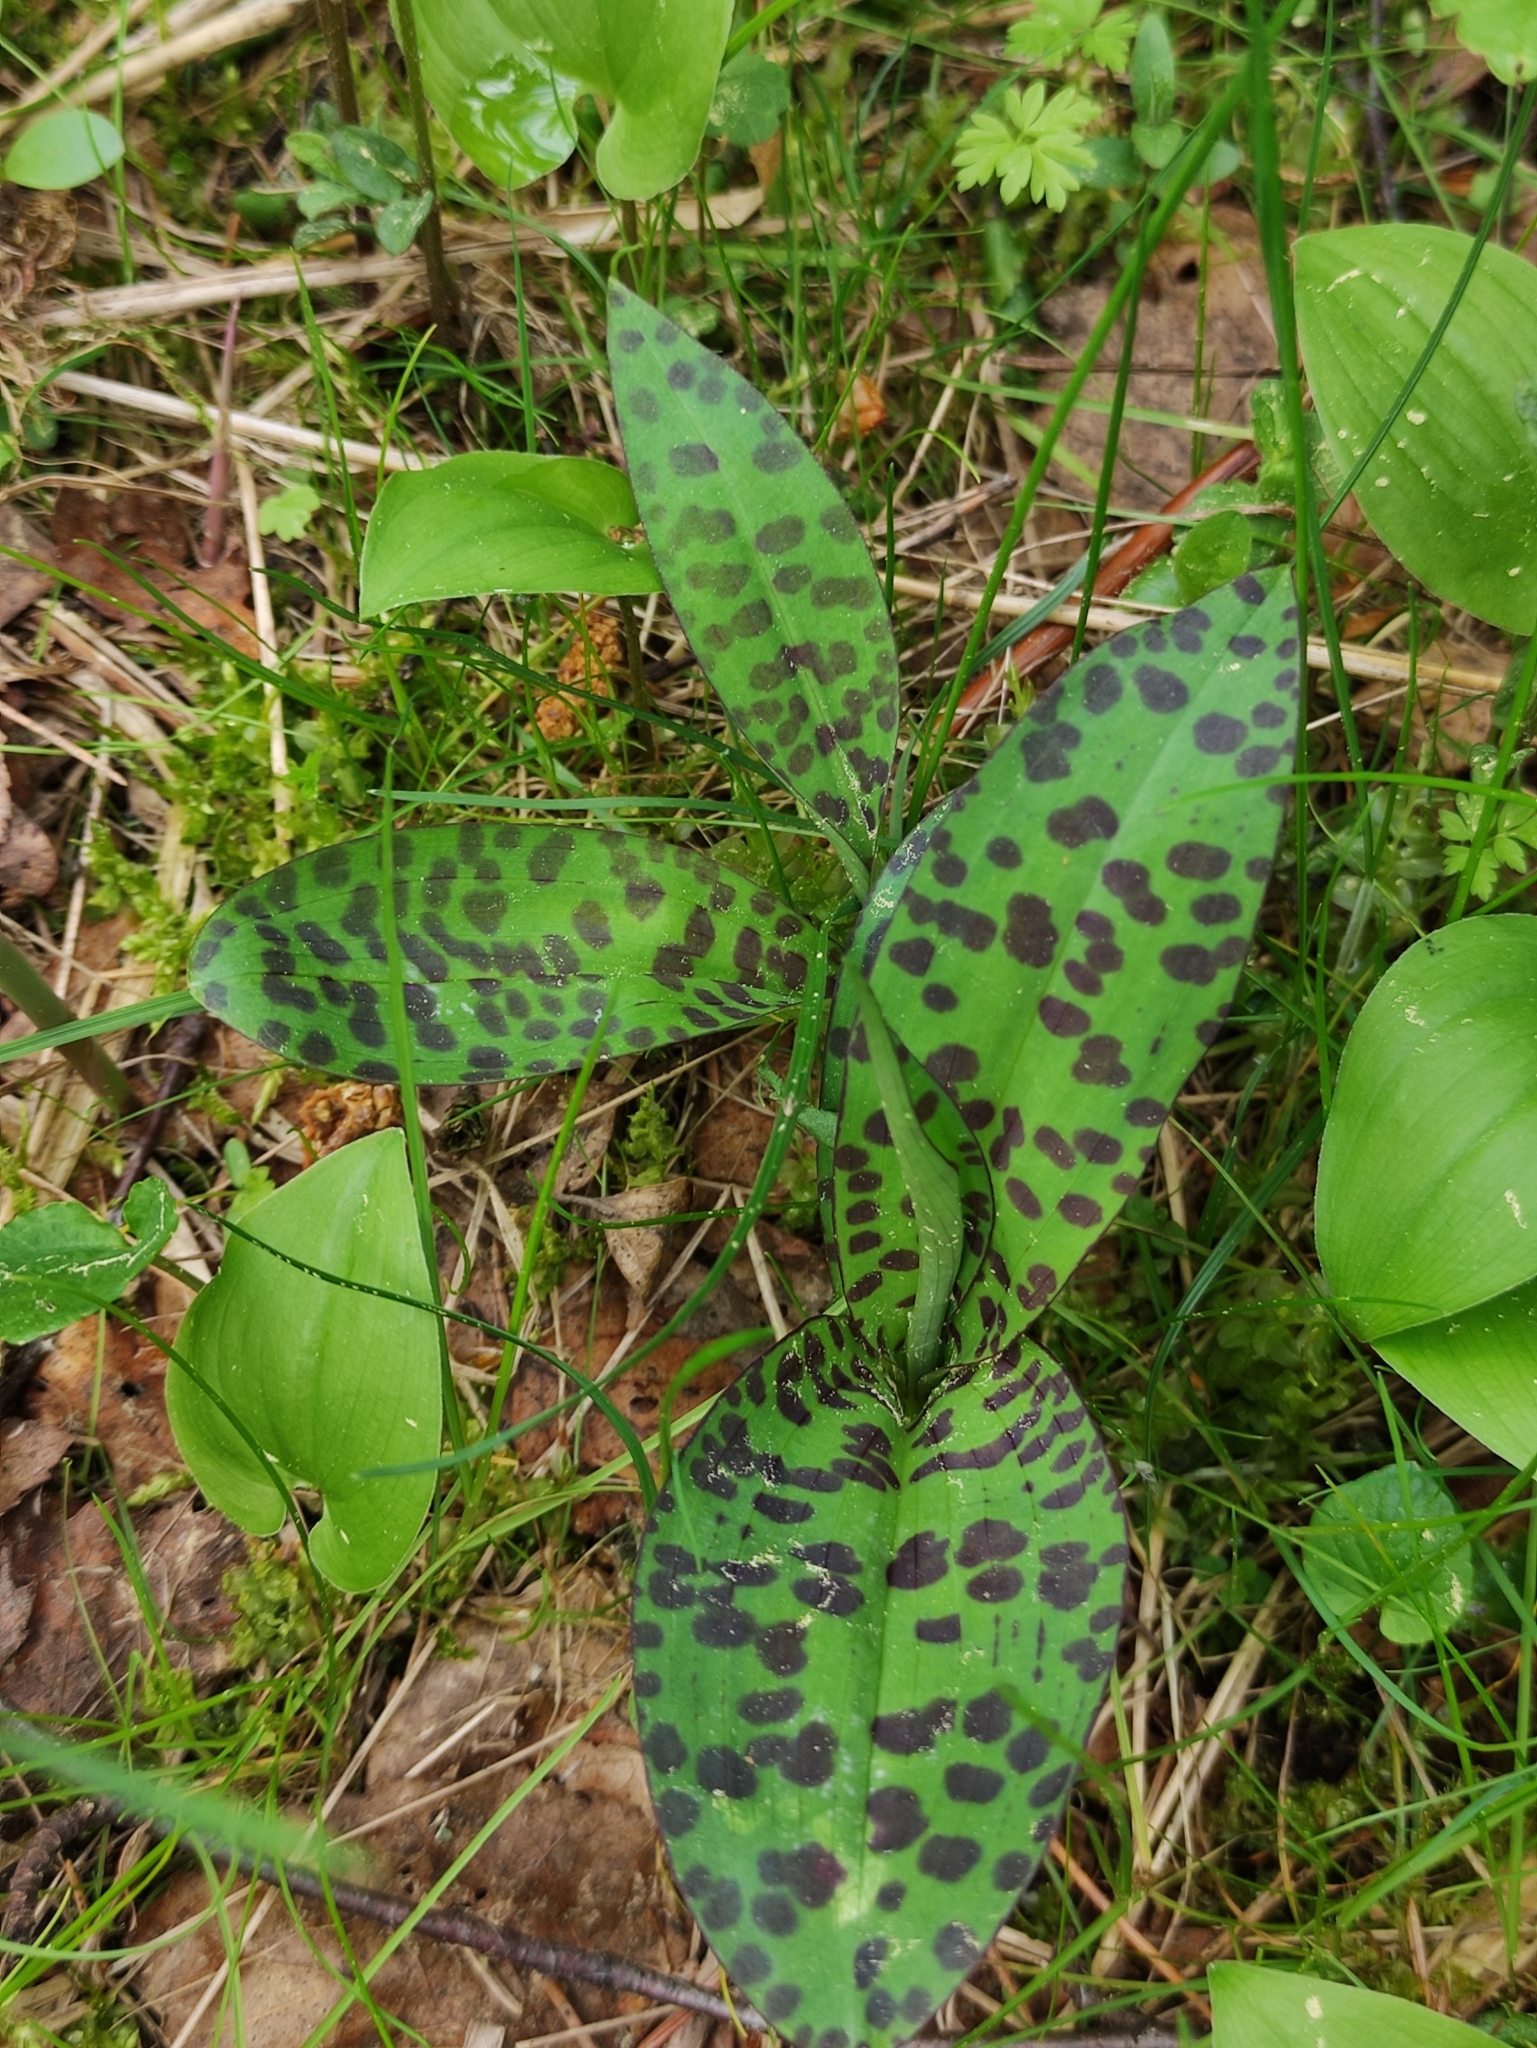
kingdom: Plantae
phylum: Tracheophyta
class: Liliopsida
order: Asparagales
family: Orchidaceae
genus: Dactylorhiza
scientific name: Dactylorhiza maculata
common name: Heath spotted-orchid
